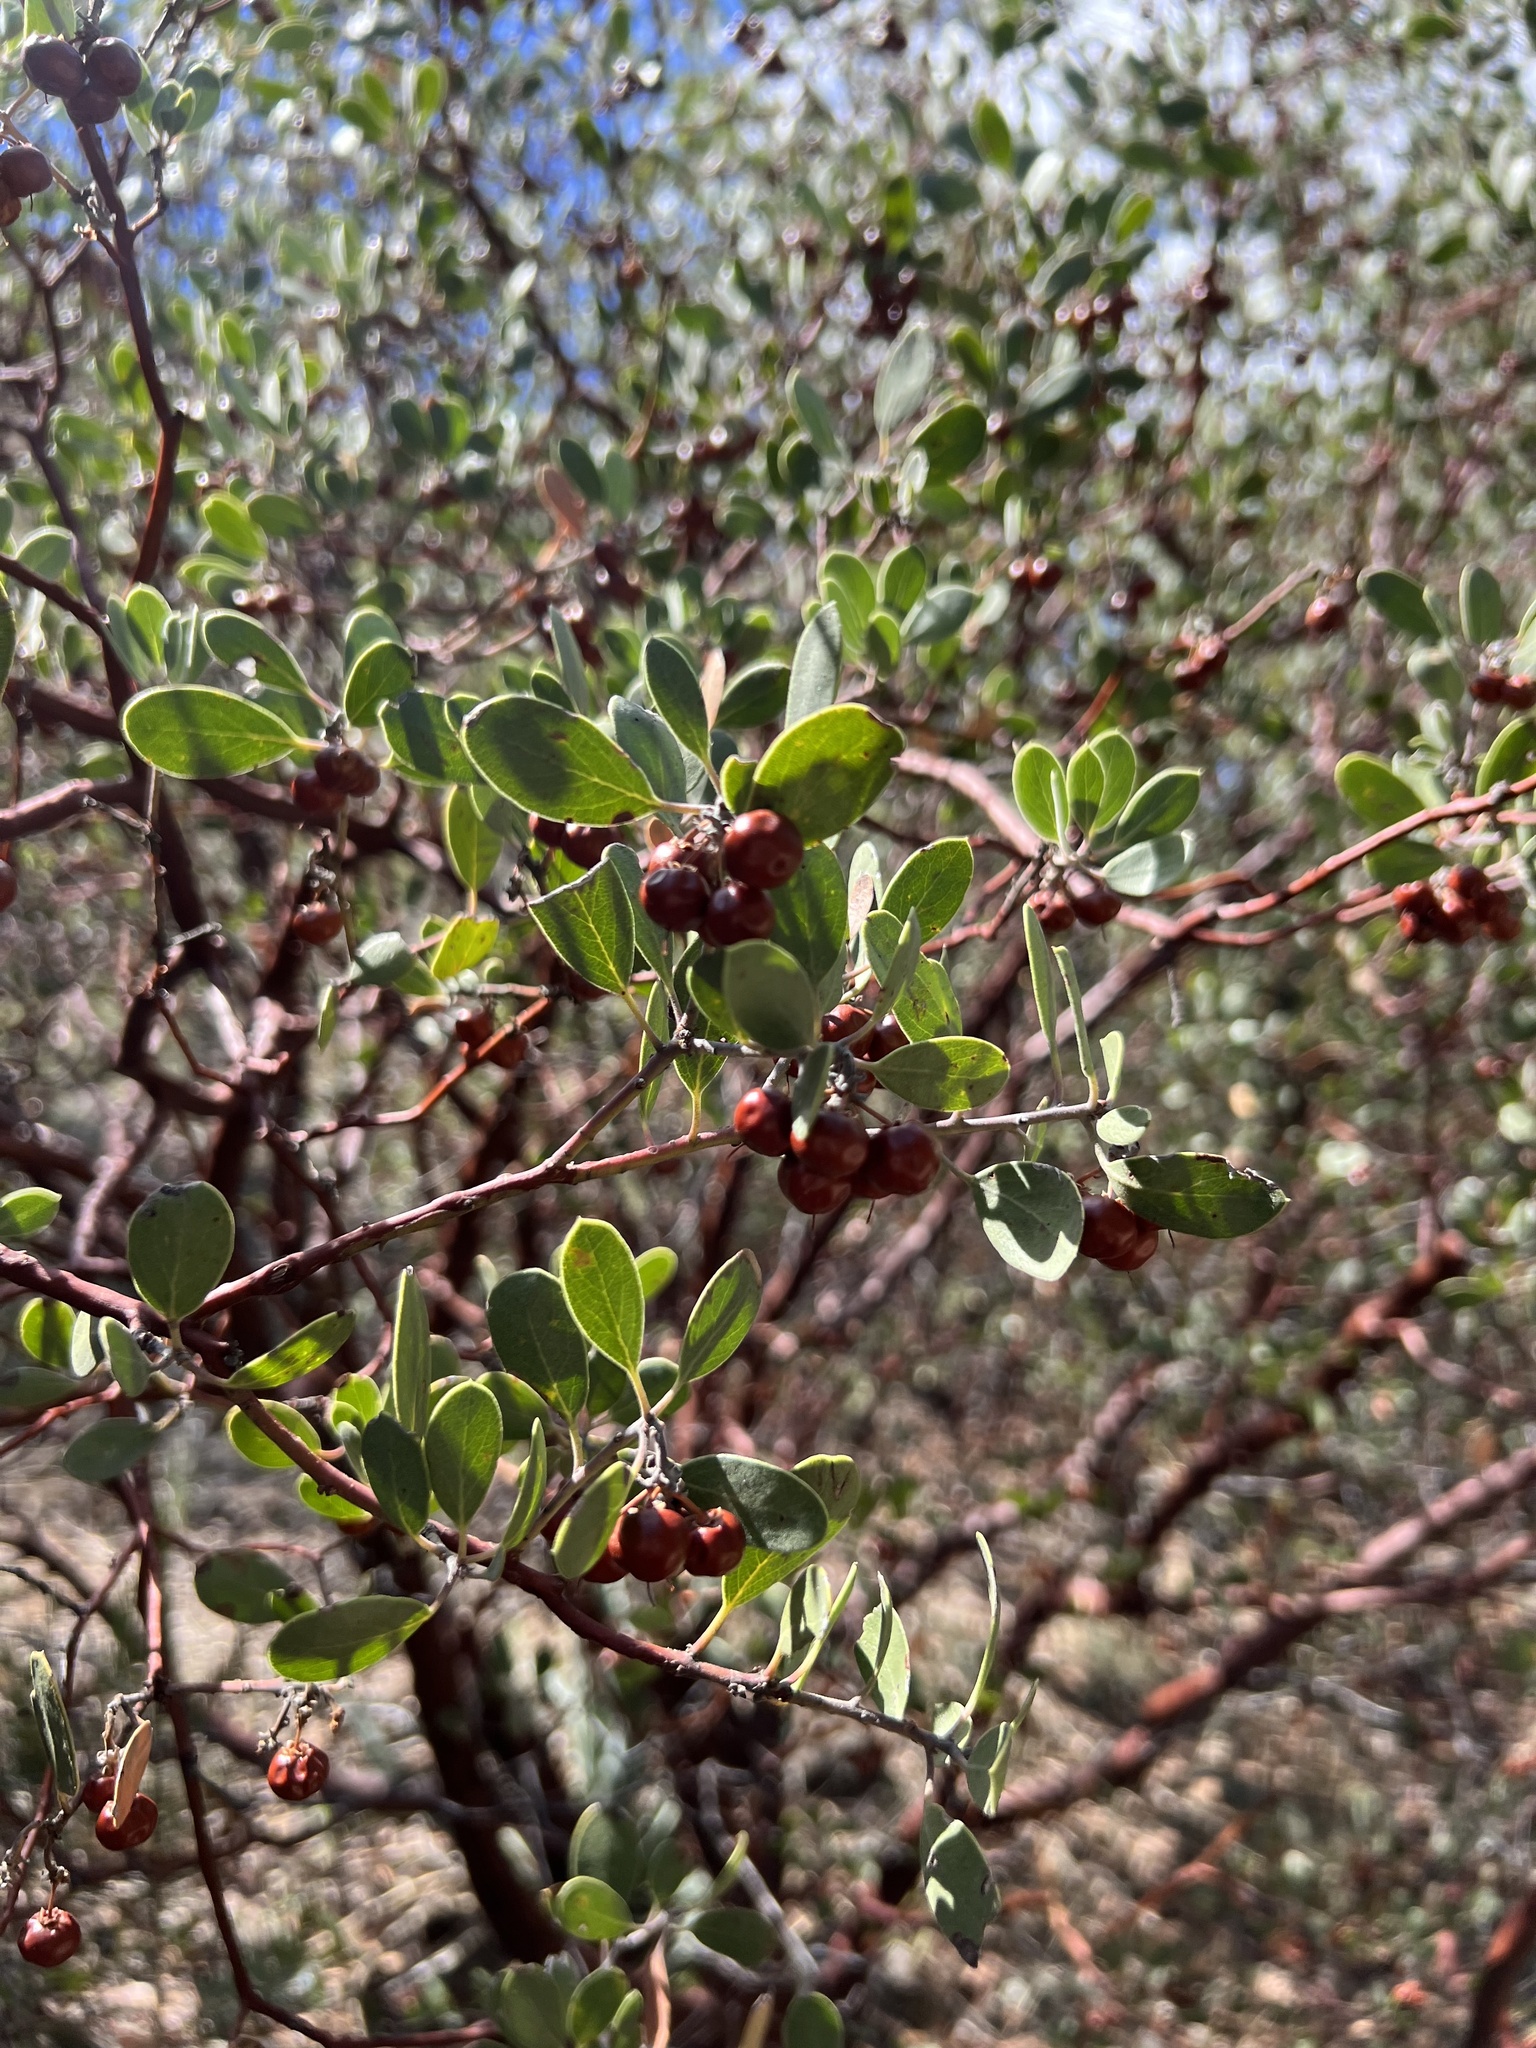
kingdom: Plantae
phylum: Tracheophyta
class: Magnoliopsida
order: Ericales
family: Ericaceae
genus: Arctostaphylos
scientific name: Arctostaphylos pungens
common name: Mexican manzanita
